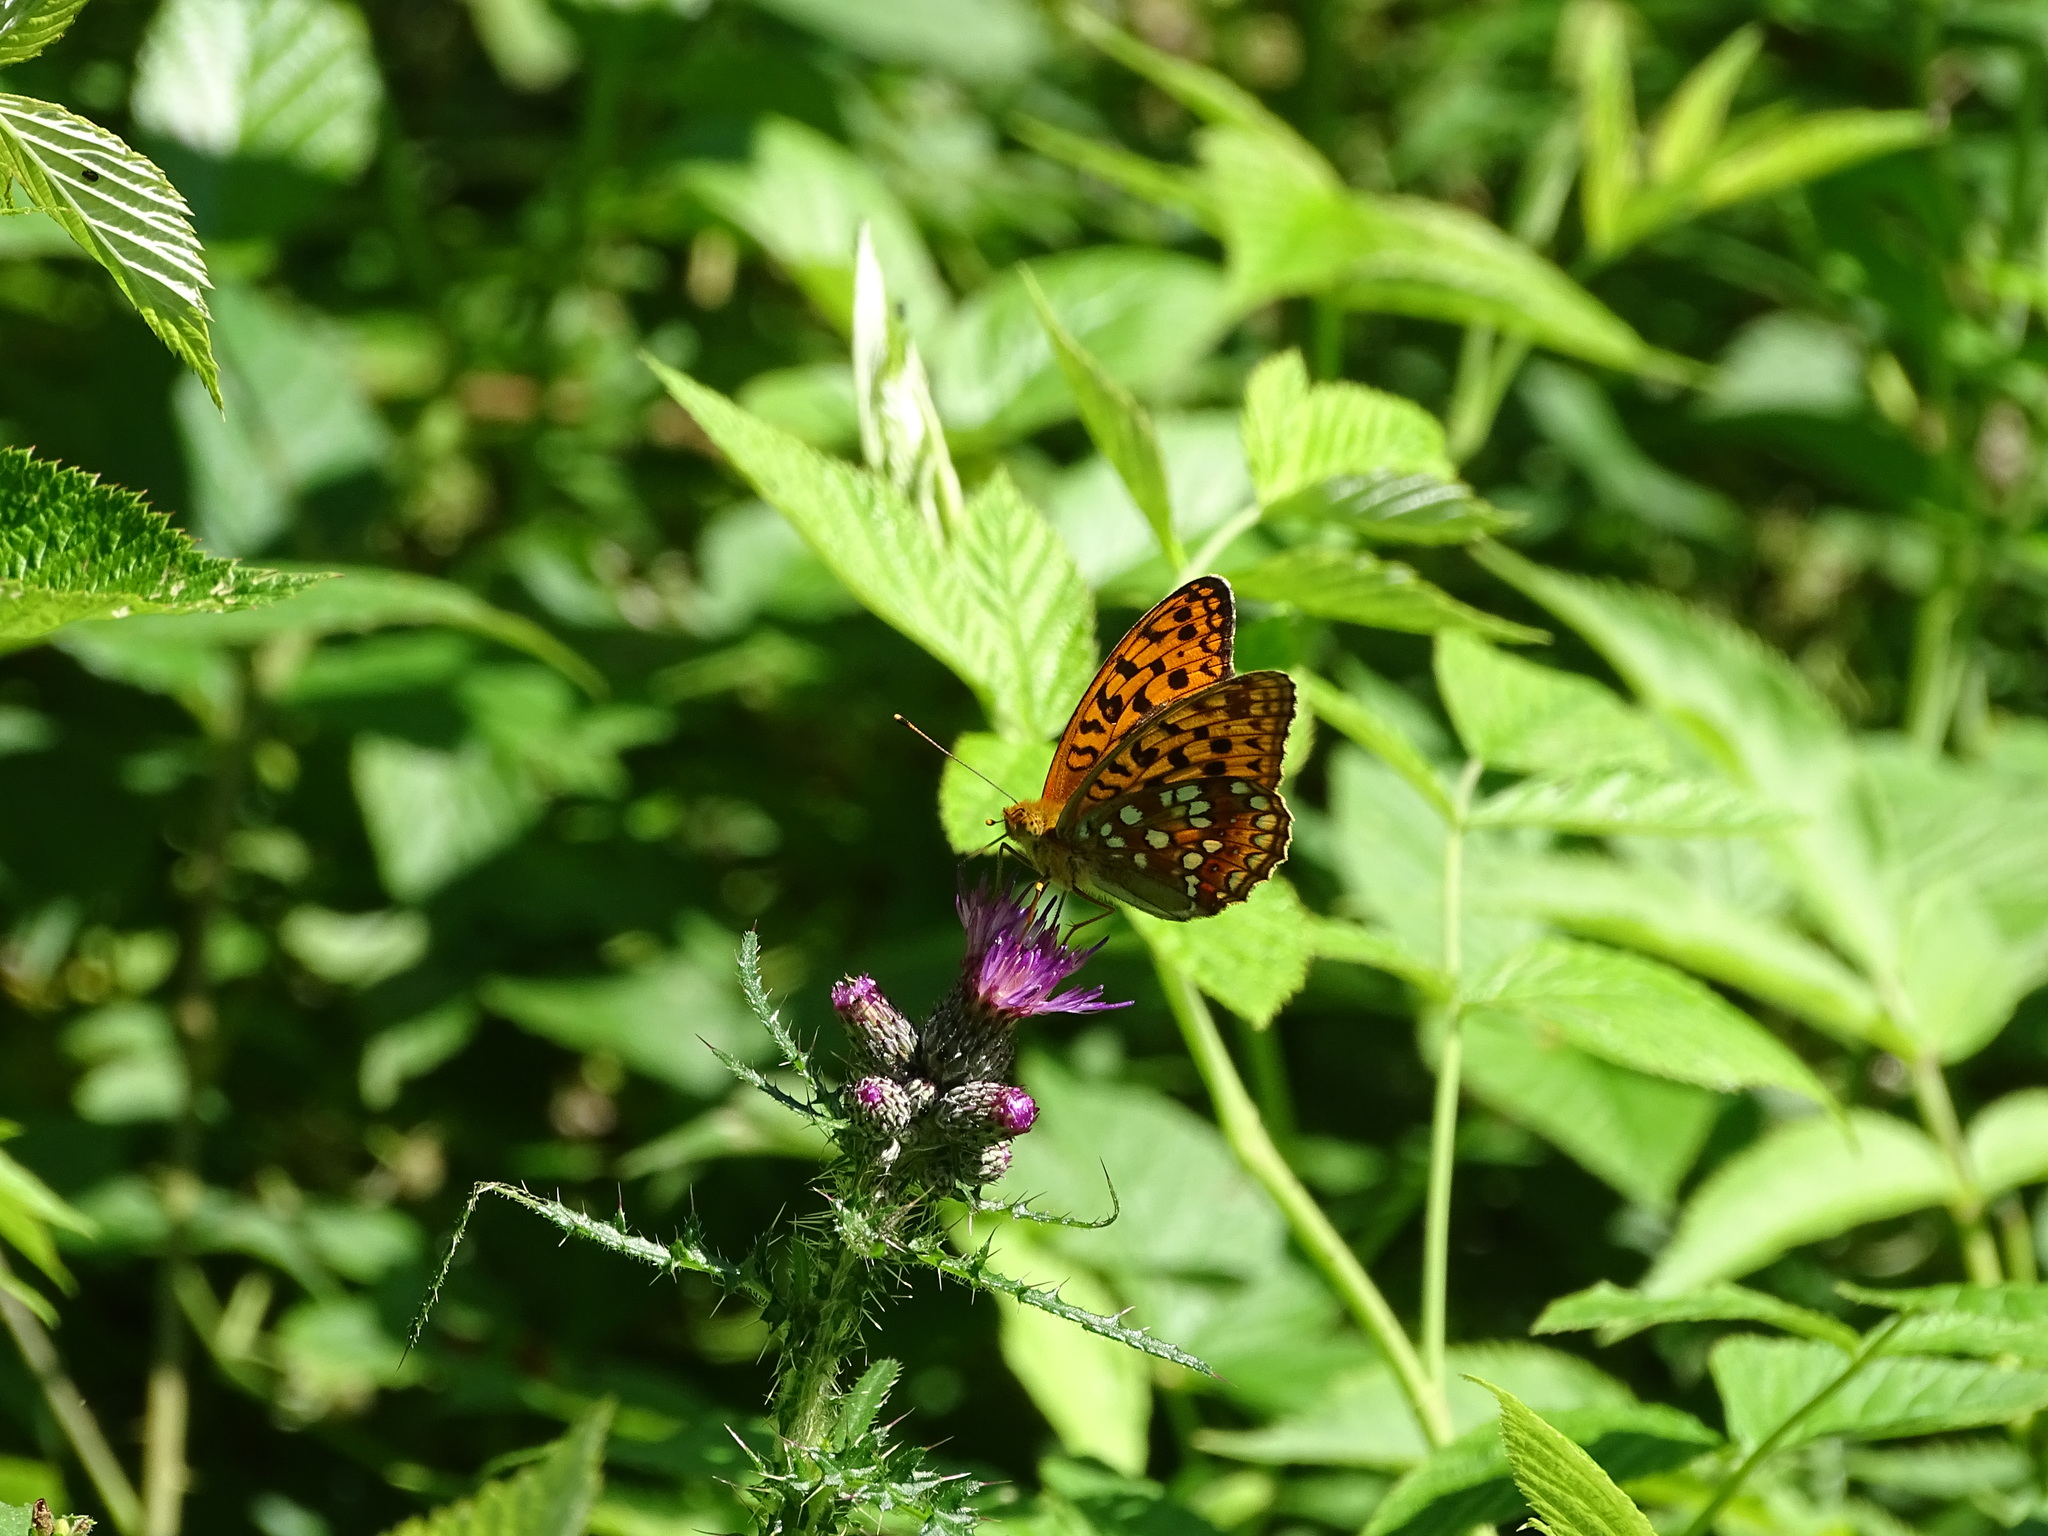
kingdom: Animalia
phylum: Arthropoda
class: Insecta
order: Lepidoptera
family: Nymphalidae
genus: Fabriciana
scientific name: Fabriciana adippe
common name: High brown fritillary
